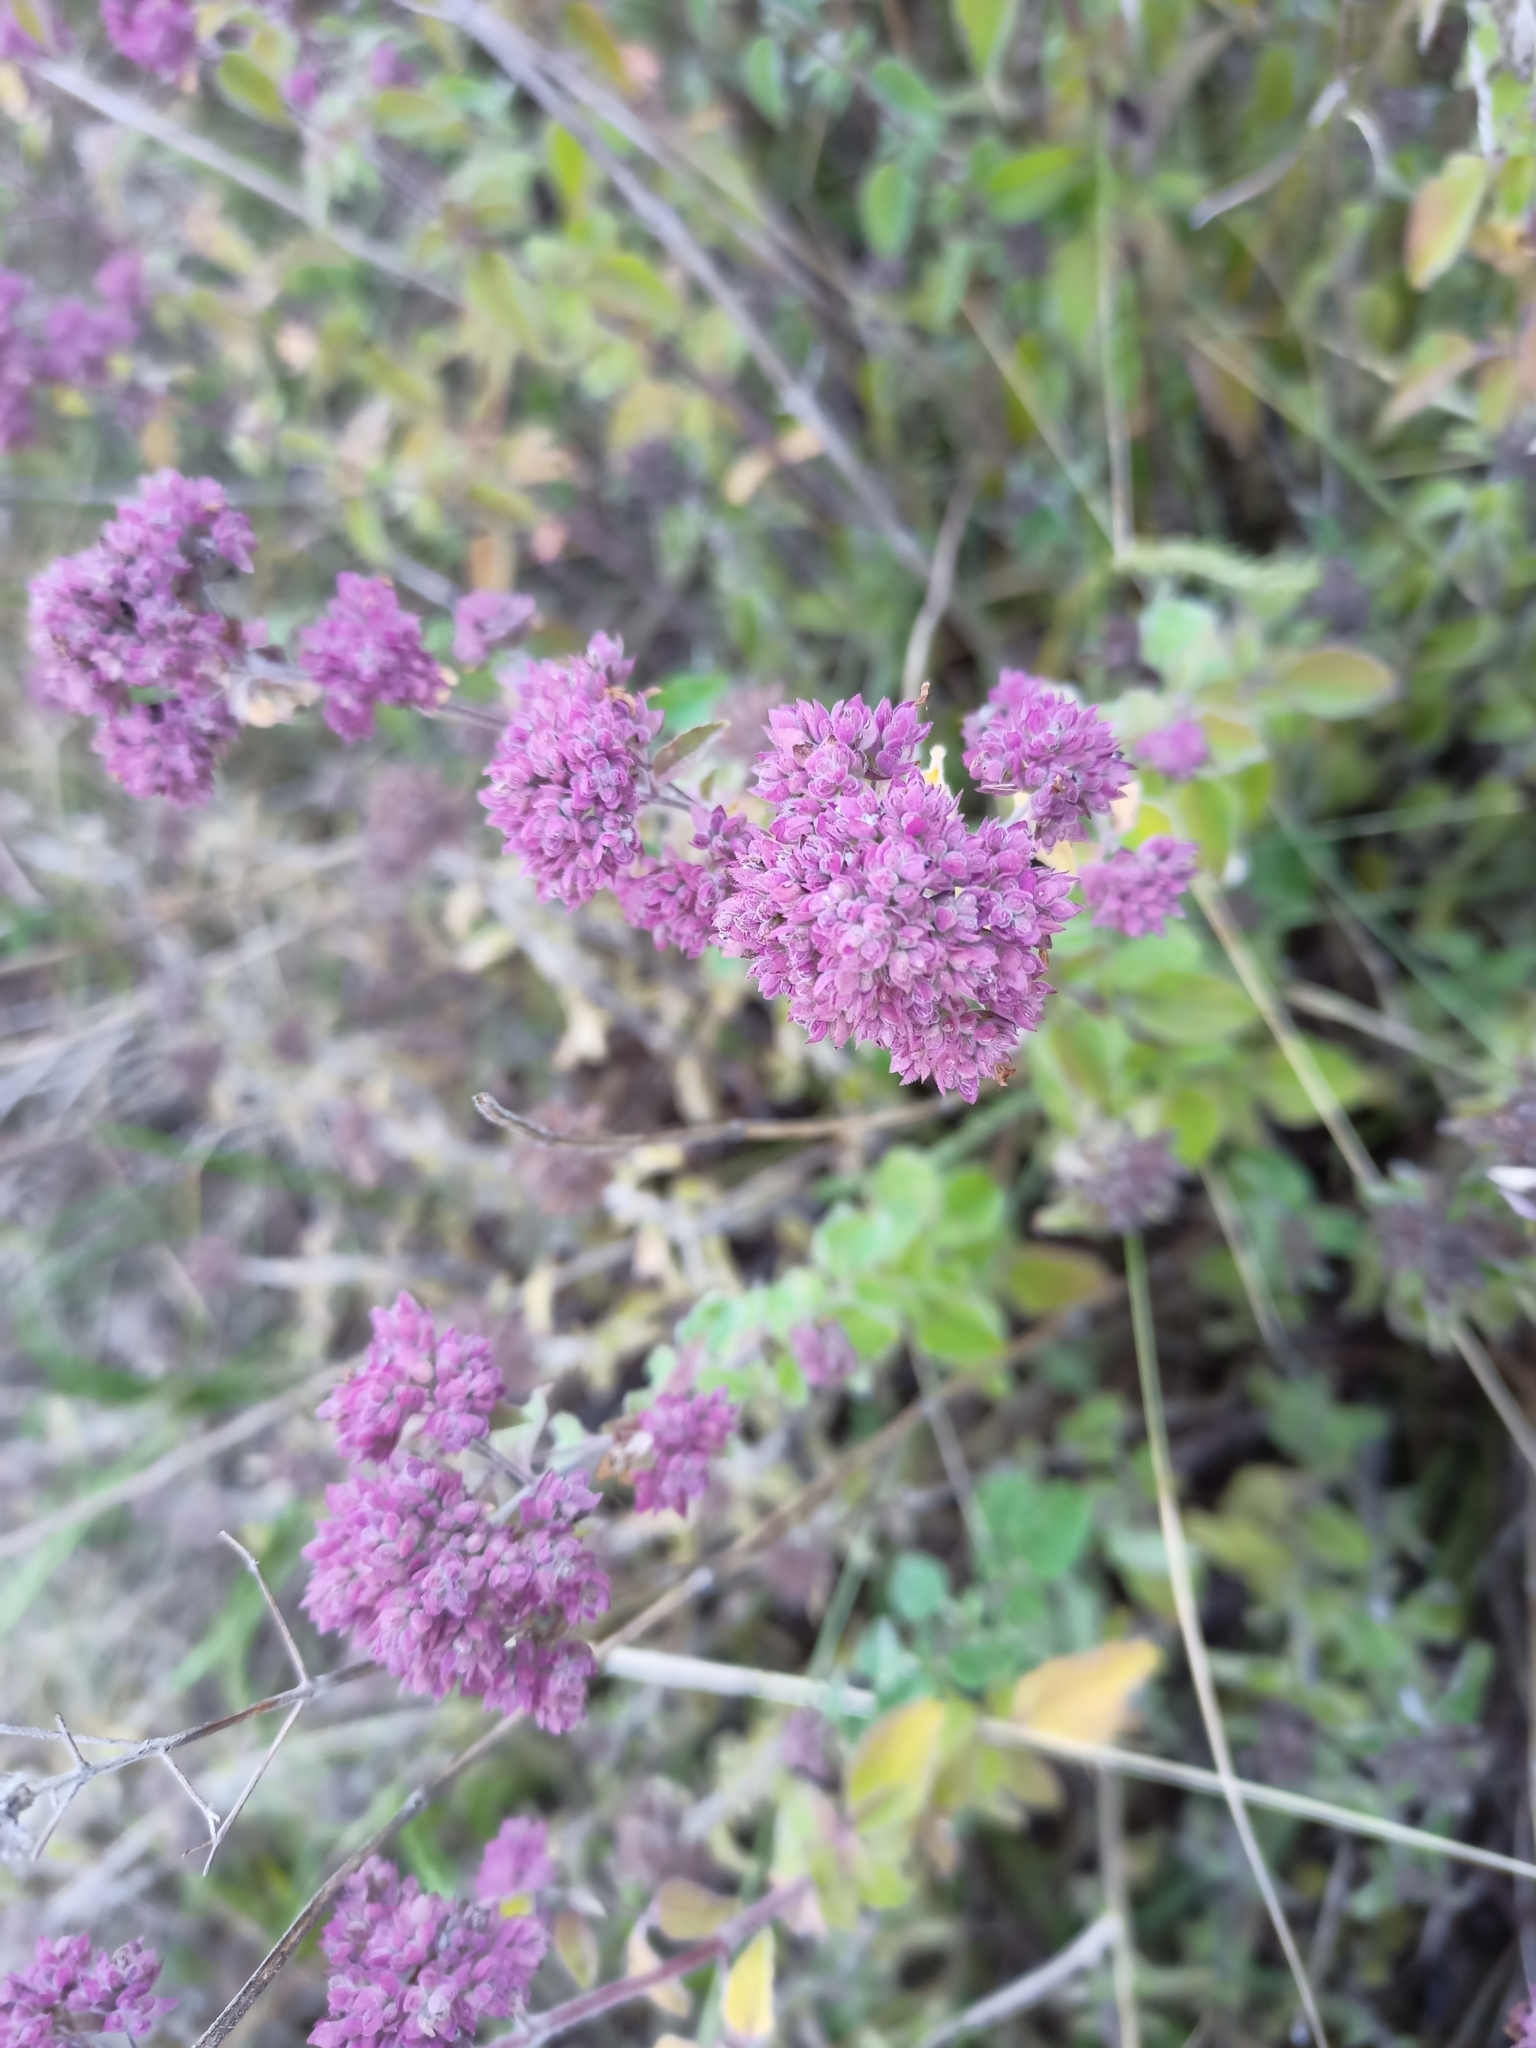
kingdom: Plantae
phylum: Tracheophyta
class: Magnoliopsida
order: Lamiales
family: Lamiaceae
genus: Origanum
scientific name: Origanum vulgare
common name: Wild marjoram
